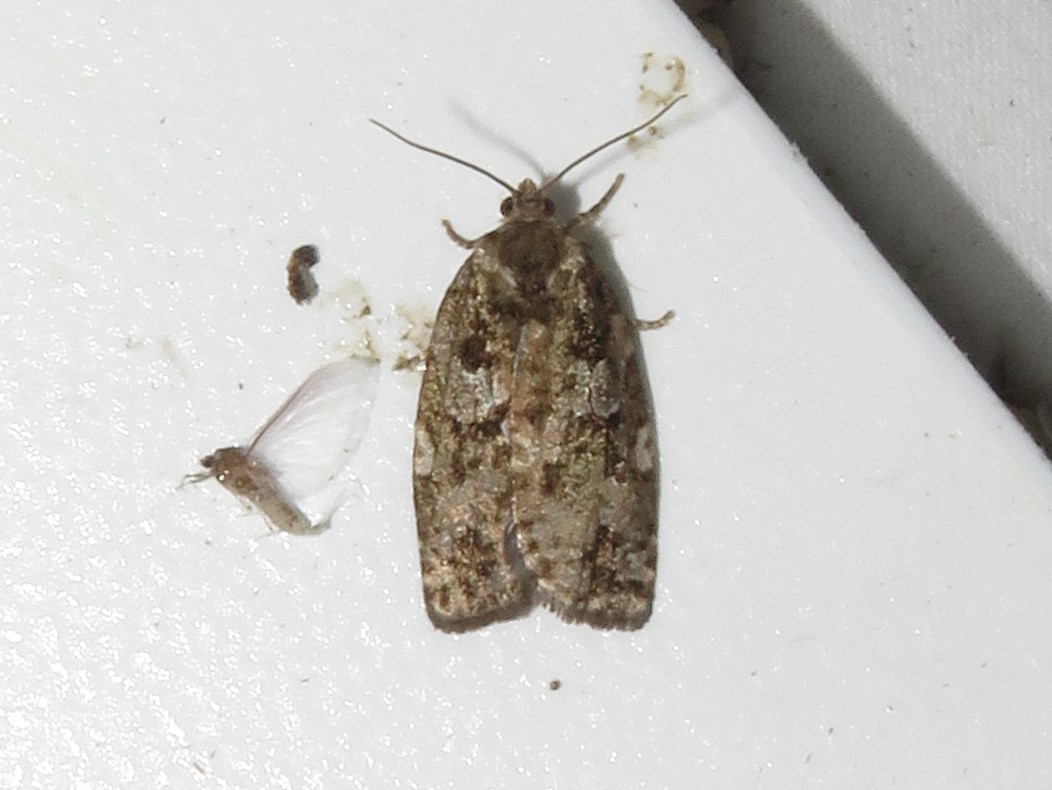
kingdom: Animalia
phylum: Arthropoda
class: Insecta
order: Lepidoptera
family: Tortricidae
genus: Choristoneura
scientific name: Choristoneura fumiferana
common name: Spruce budworm
